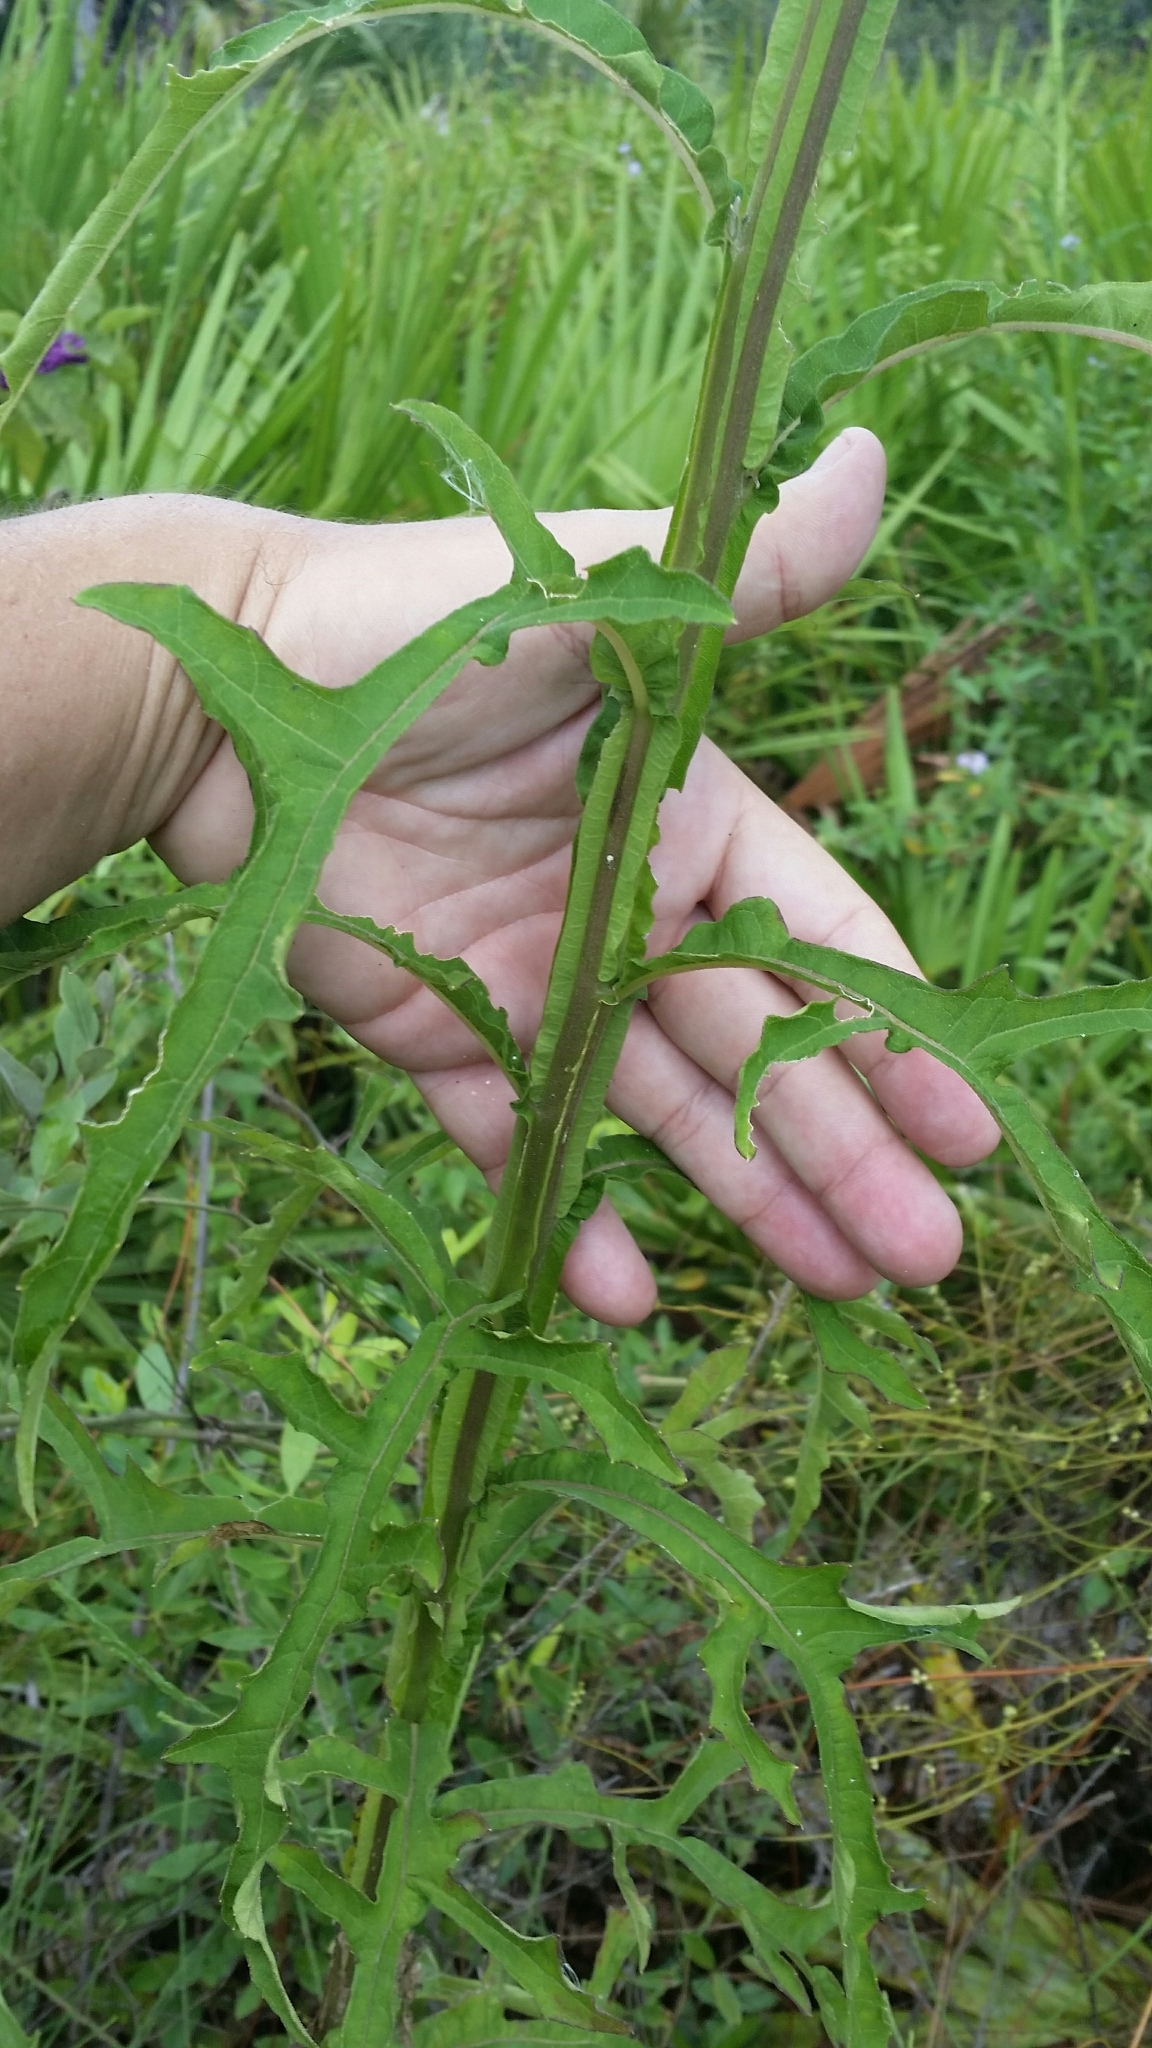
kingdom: Plantae
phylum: Tracheophyta
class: Magnoliopsida
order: Asterales
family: Asteraceae
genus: Verbesina
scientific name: Verbesina virginica
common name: Frostweed
